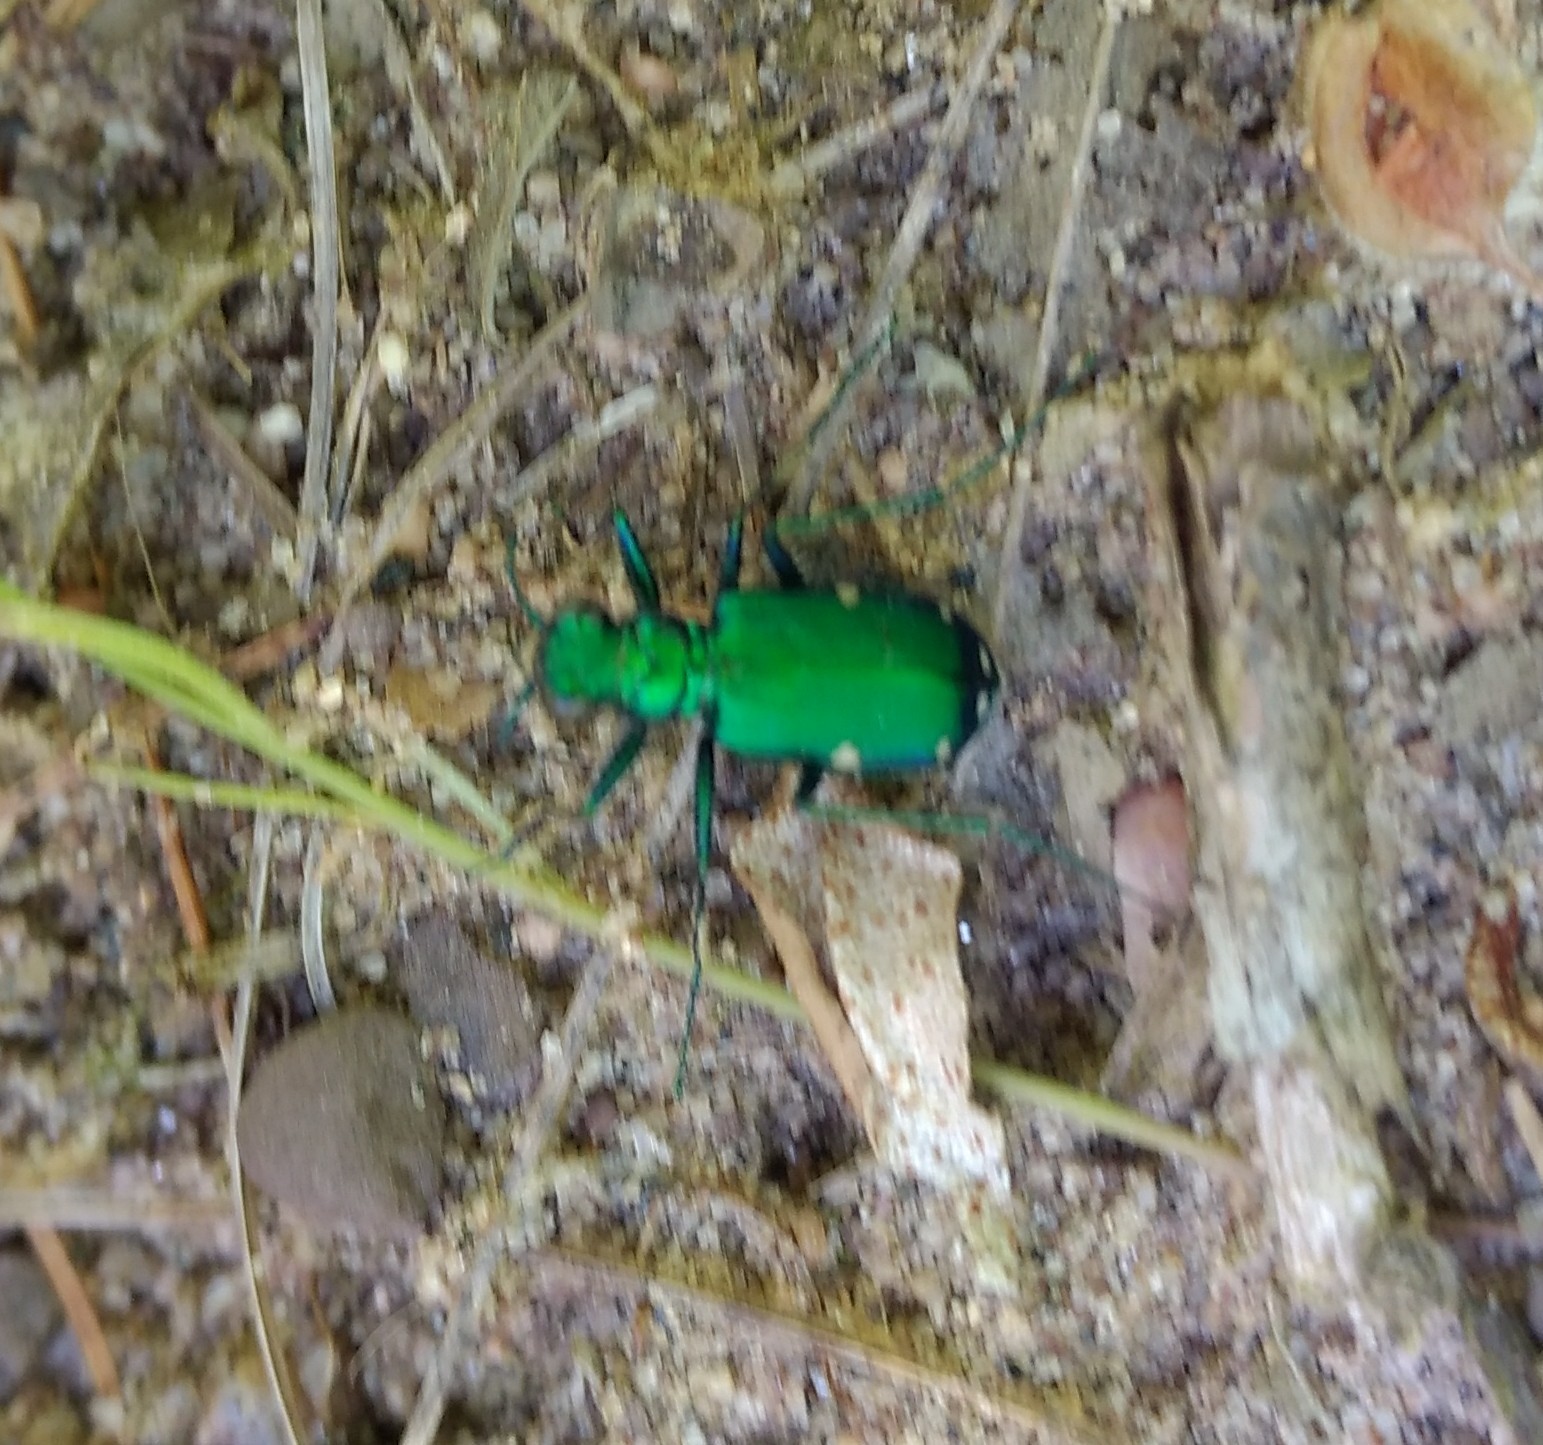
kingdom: Animalia
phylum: Arthropoda
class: Insecta
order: Coleoptera
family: Carabidae
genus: Cicindela
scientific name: Cicindela sexguttata
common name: Six-spotted tiger beetle
